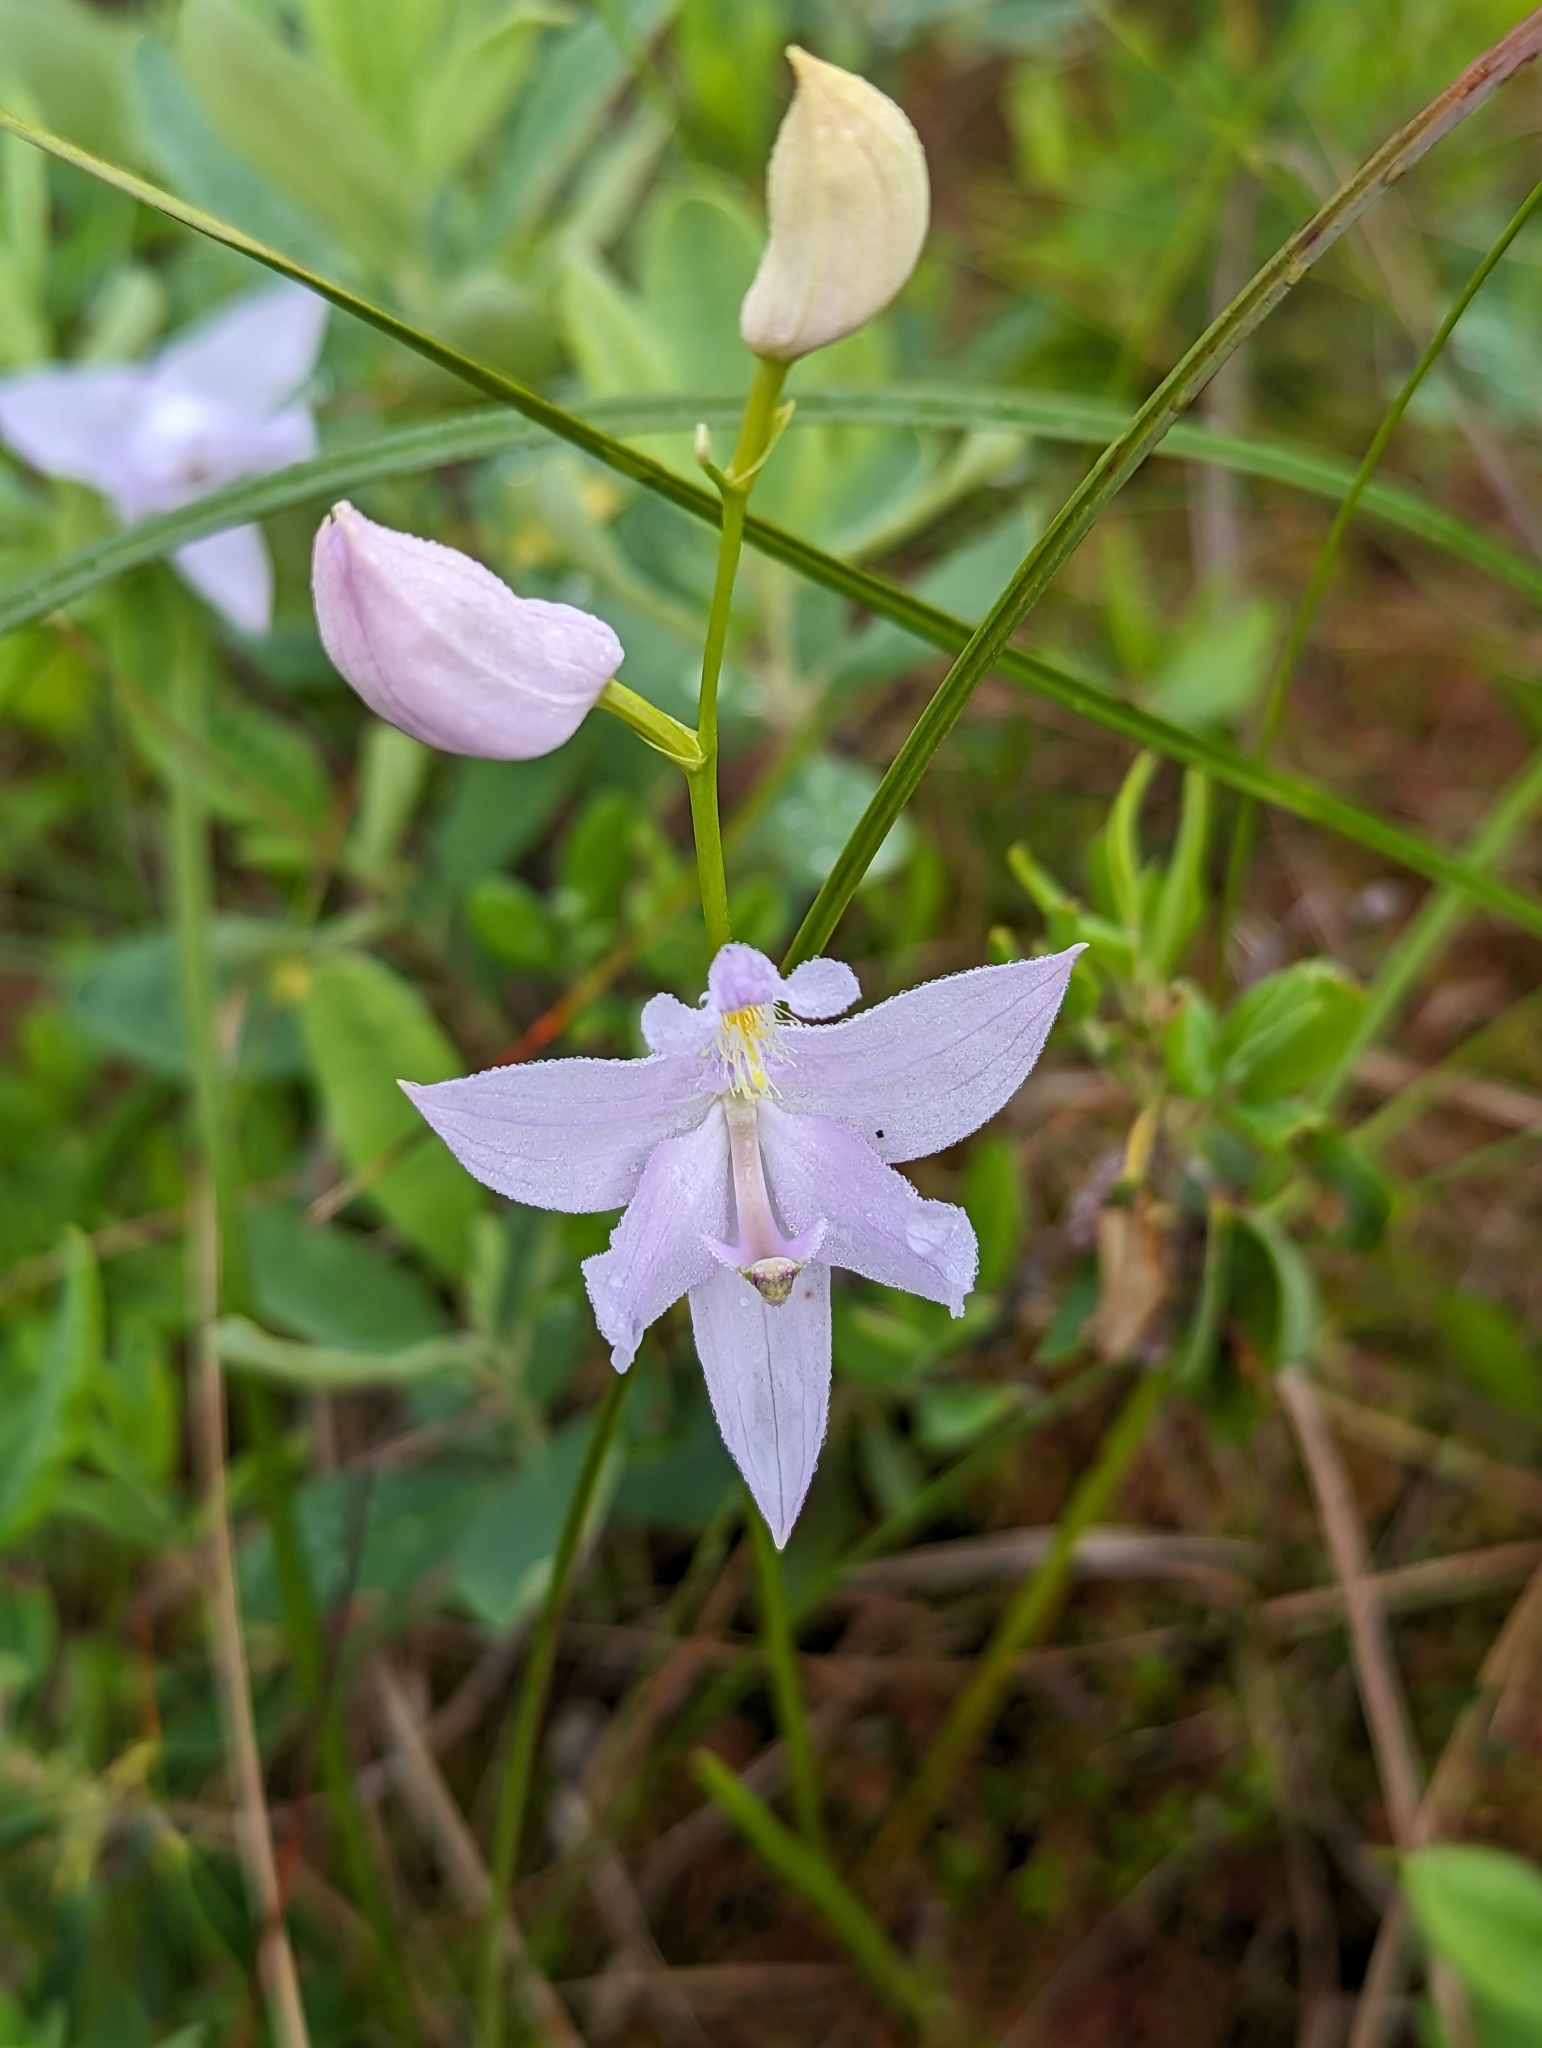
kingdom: Plantae
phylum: Tracheophyta
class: Liliopsida
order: Asparagales
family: Orchidaceae
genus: Calopogon
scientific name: Calopogon tuberosus
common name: Grass-pink
